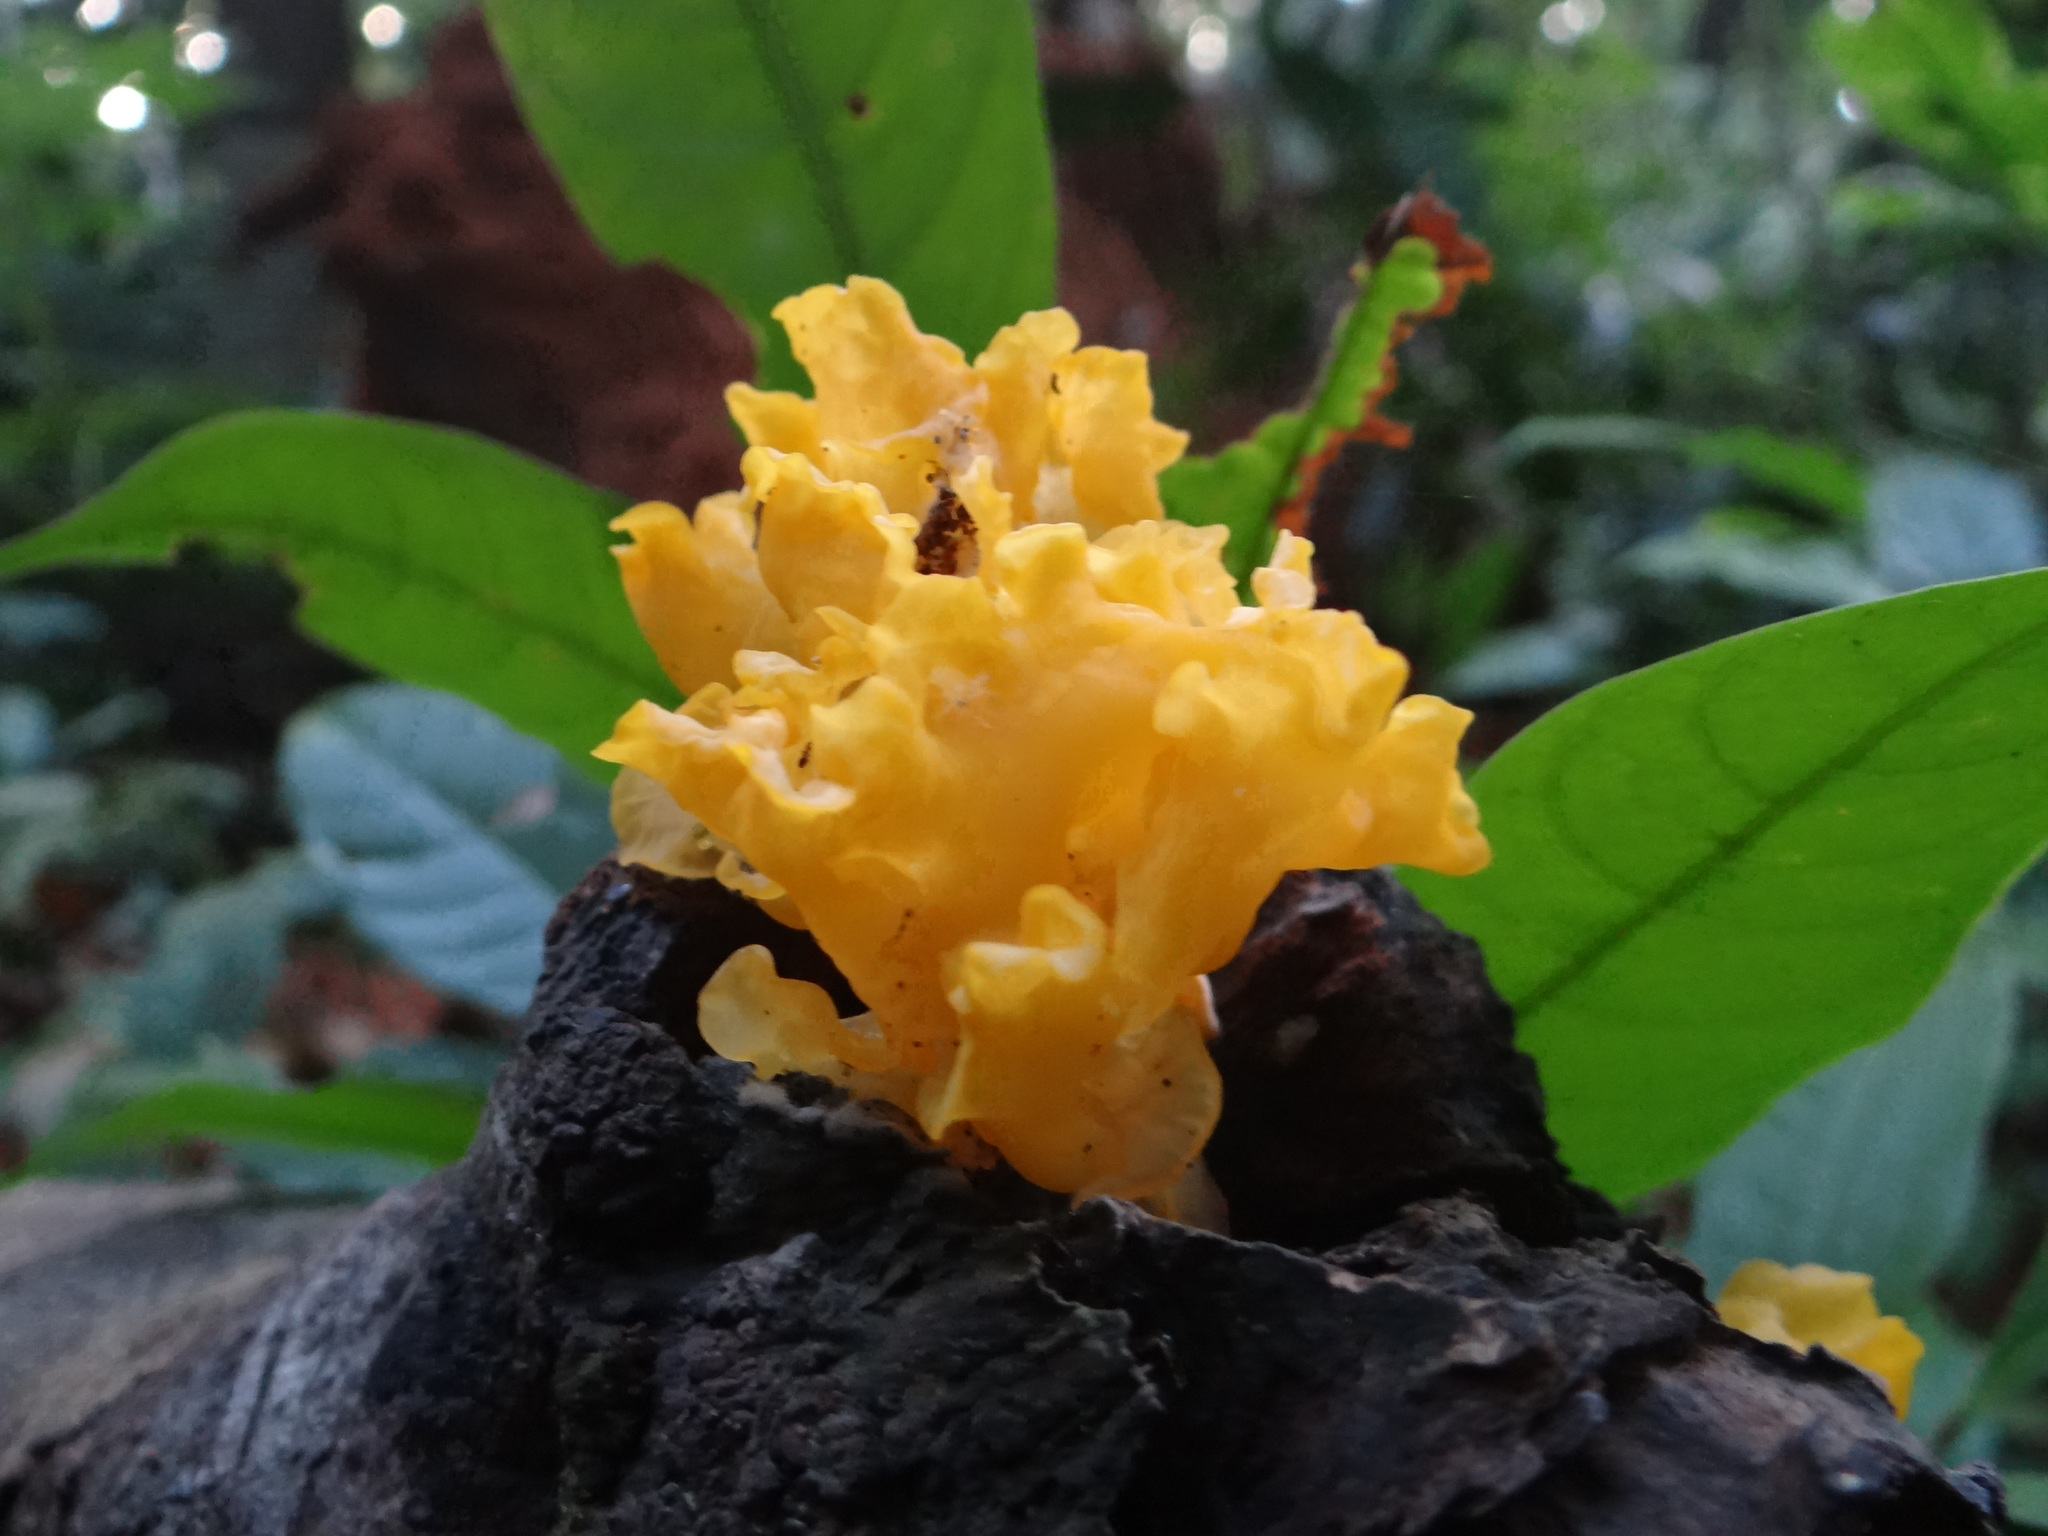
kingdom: Fungi
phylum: Basidiomycota
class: Dacrymycetes
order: Dacrymycetales
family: Dacrymycetaceae
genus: Dacrymyces
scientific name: Dacrymyces spathularius
